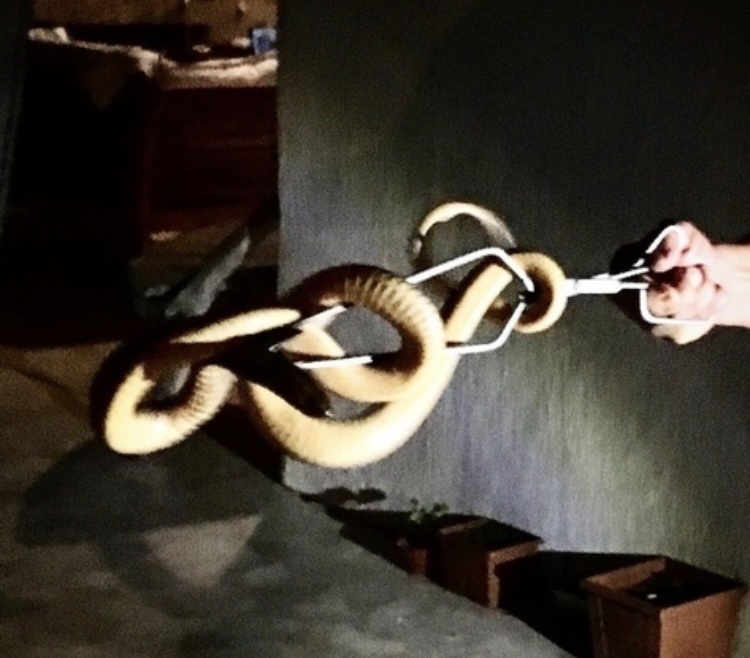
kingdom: Animalia
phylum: Chordata
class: Squamata
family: Elapidae
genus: Naja
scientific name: Naja nivea
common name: Cape cobra
